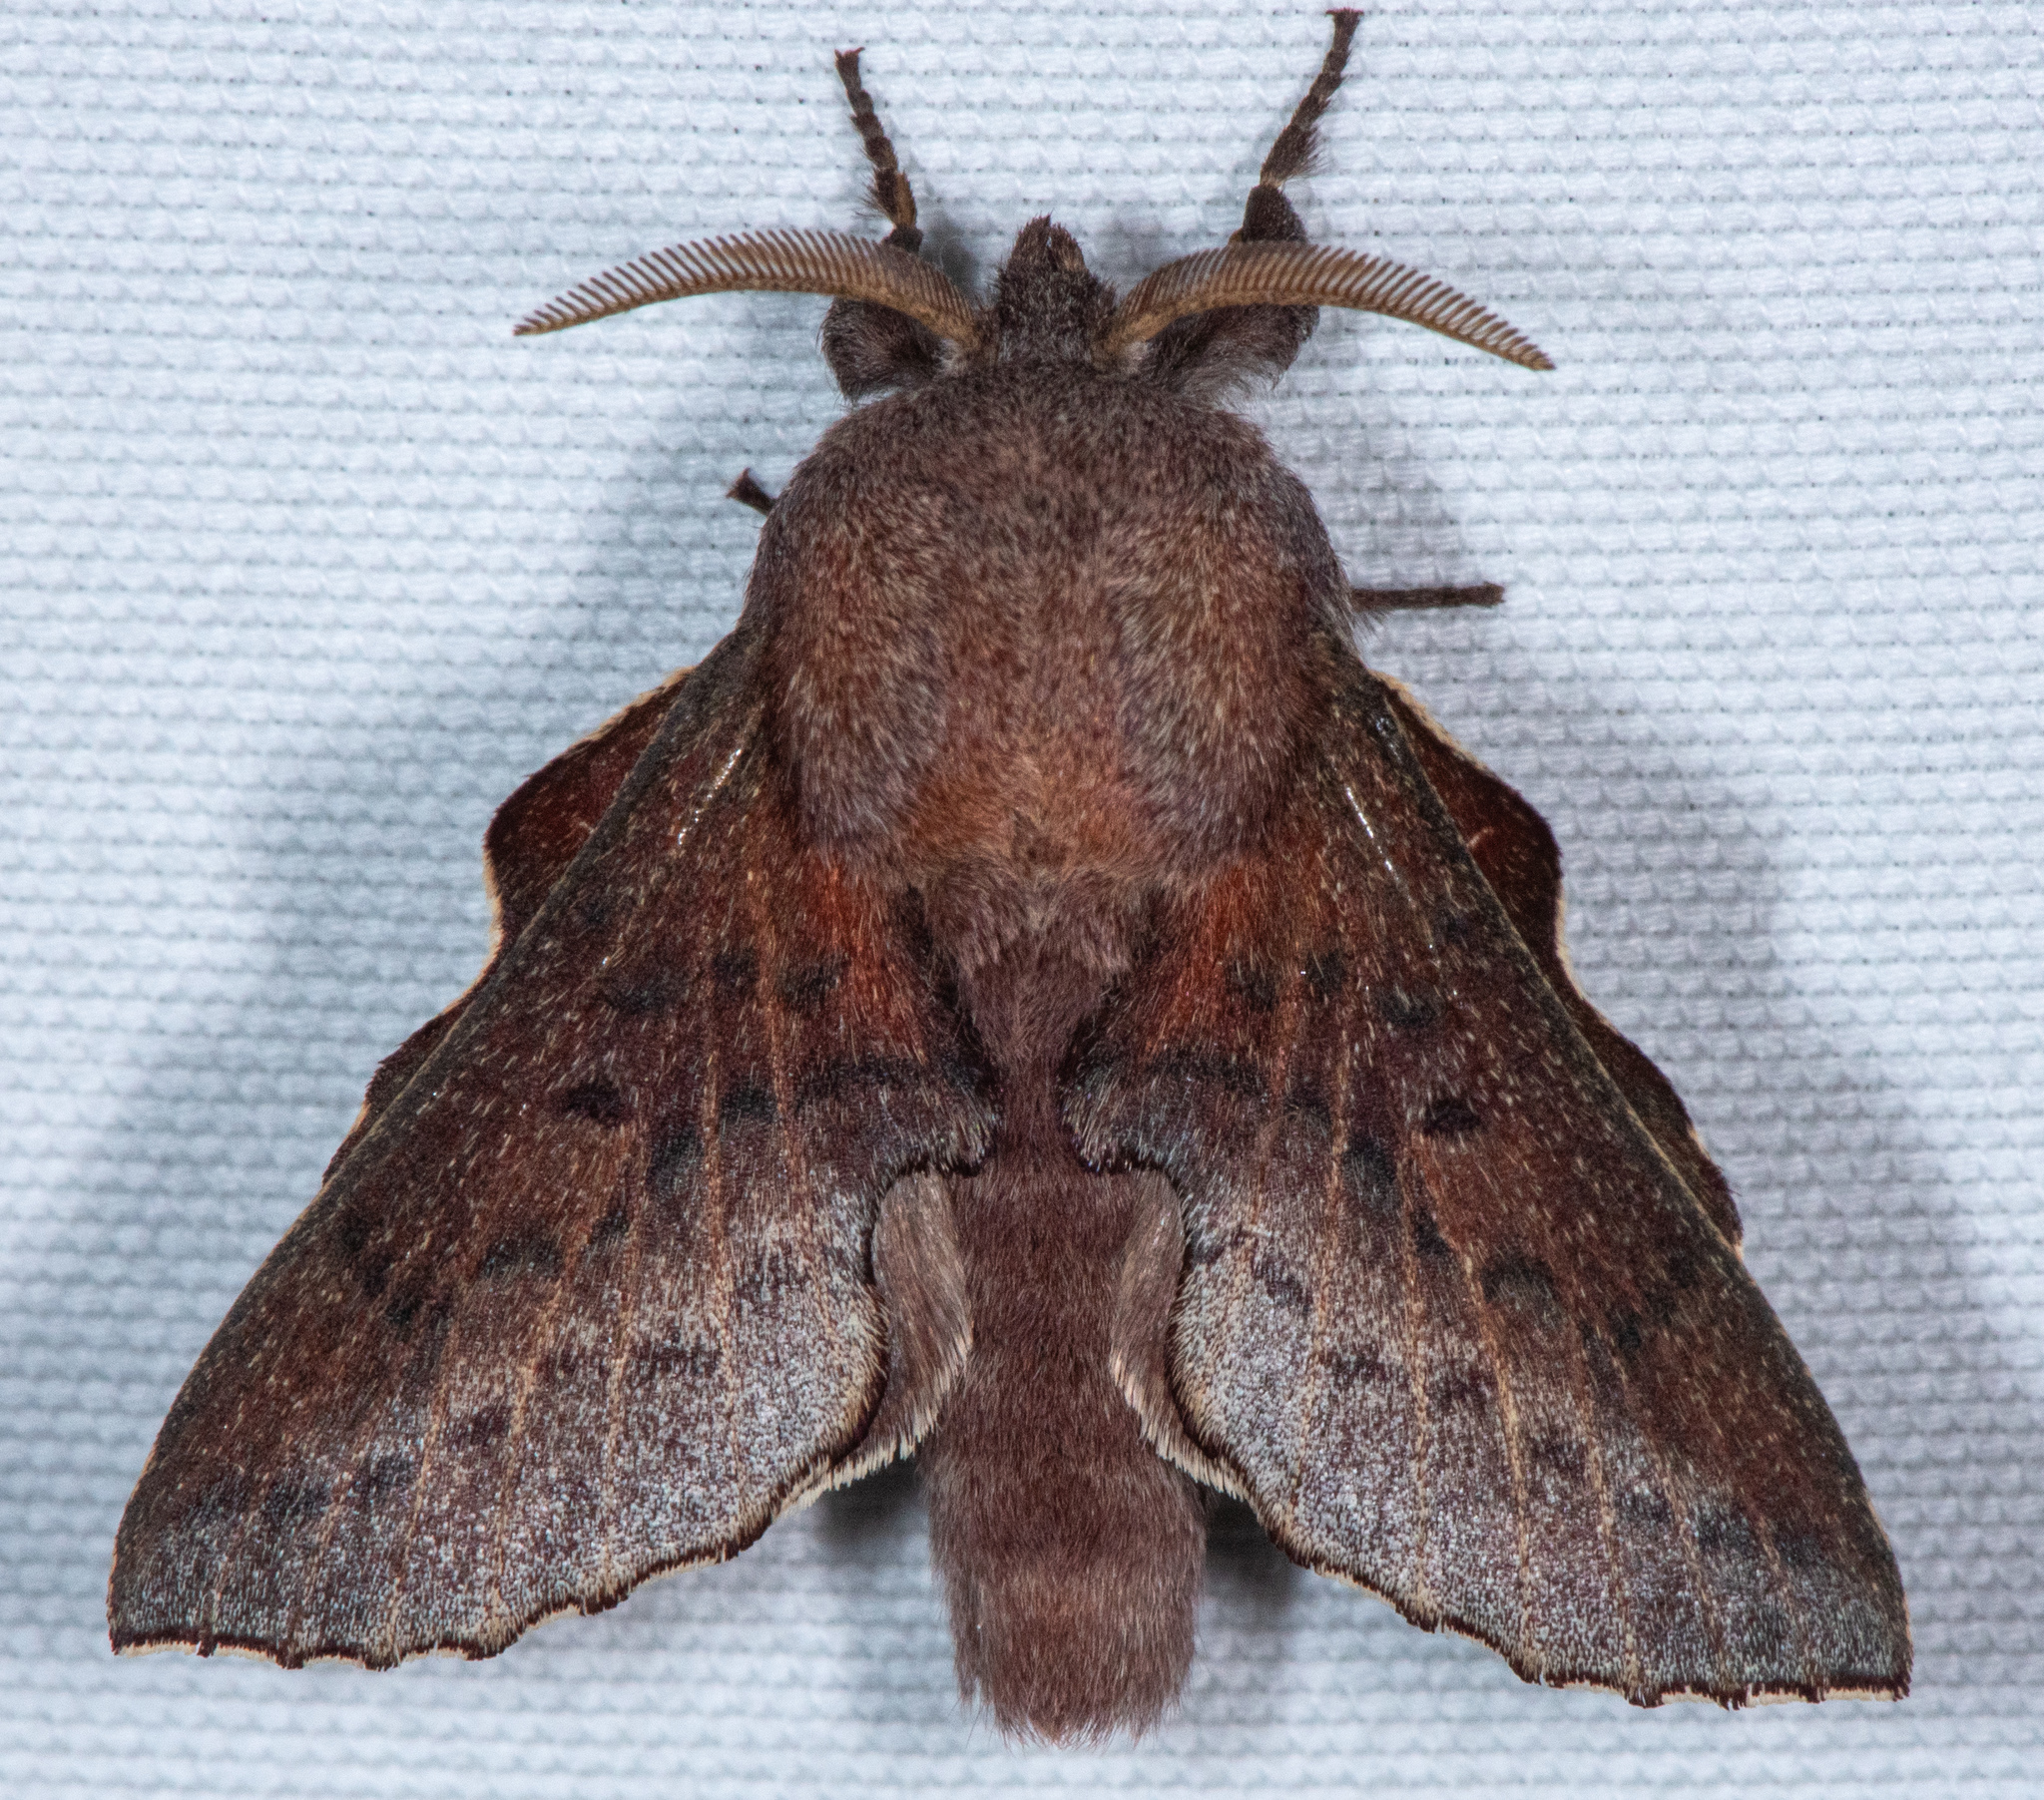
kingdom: Animalia
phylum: Arthropoda
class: Insecta
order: Lepidoptera
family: Lasiocampidae
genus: Phyllodesma
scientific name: Phyllodesma americana
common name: American lappet moth
